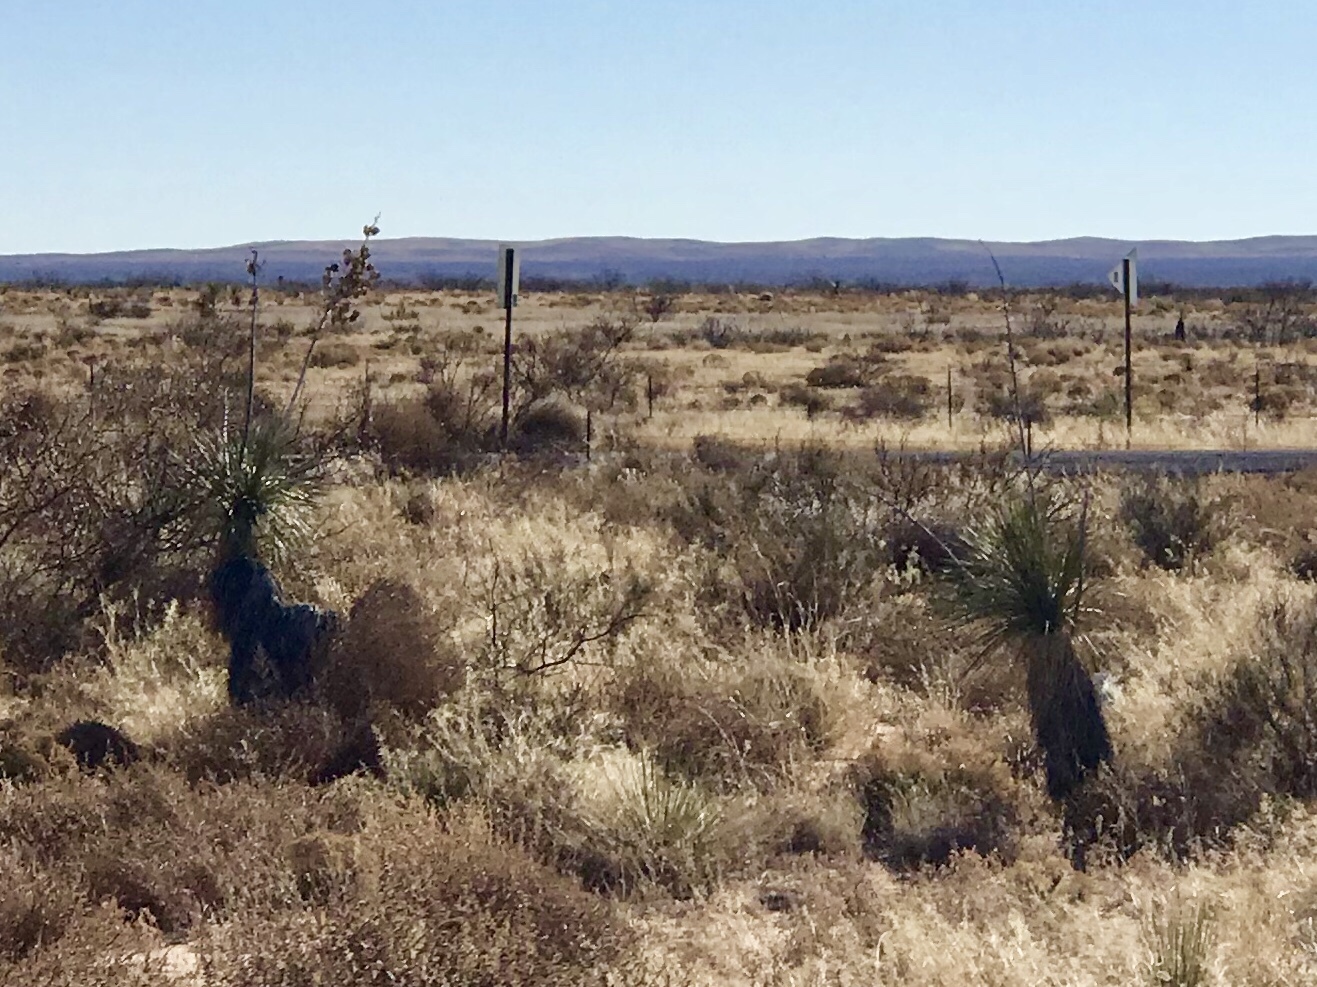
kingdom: Plantae
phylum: Tracheophyta
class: Liliopsida
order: Asparagales
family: Asparagaceae
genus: Yucca
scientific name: Yucca elata
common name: Palmella
